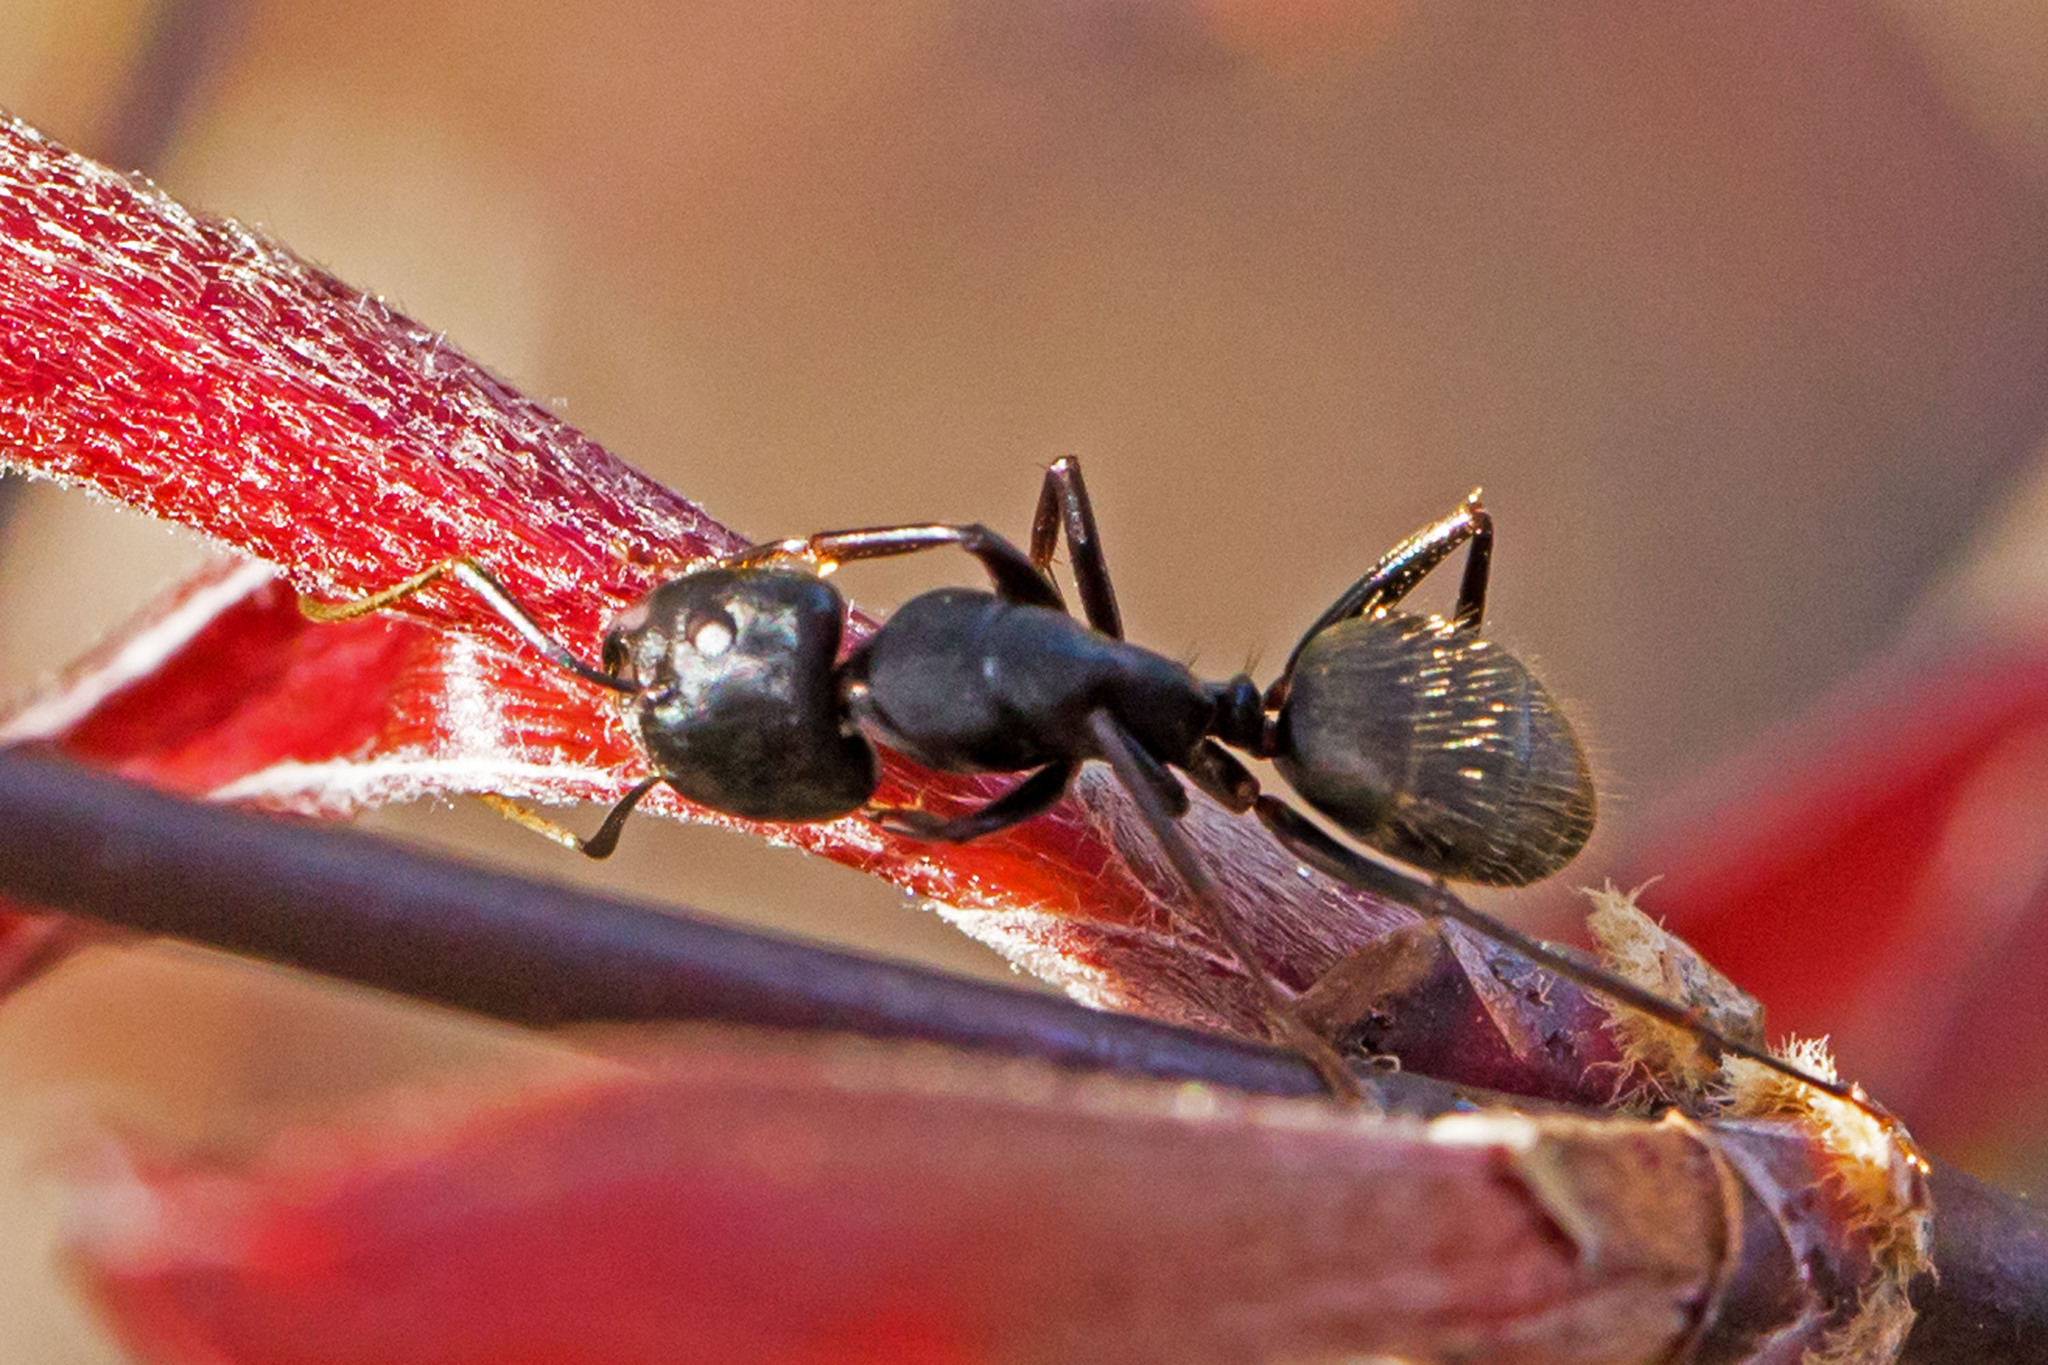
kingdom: Animalia
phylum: Arthropoda
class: Insecta
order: Hymenoptera
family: Formicidae
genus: Camponotus
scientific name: Camponotus pennsylvanicus
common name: Black carpenter ant
